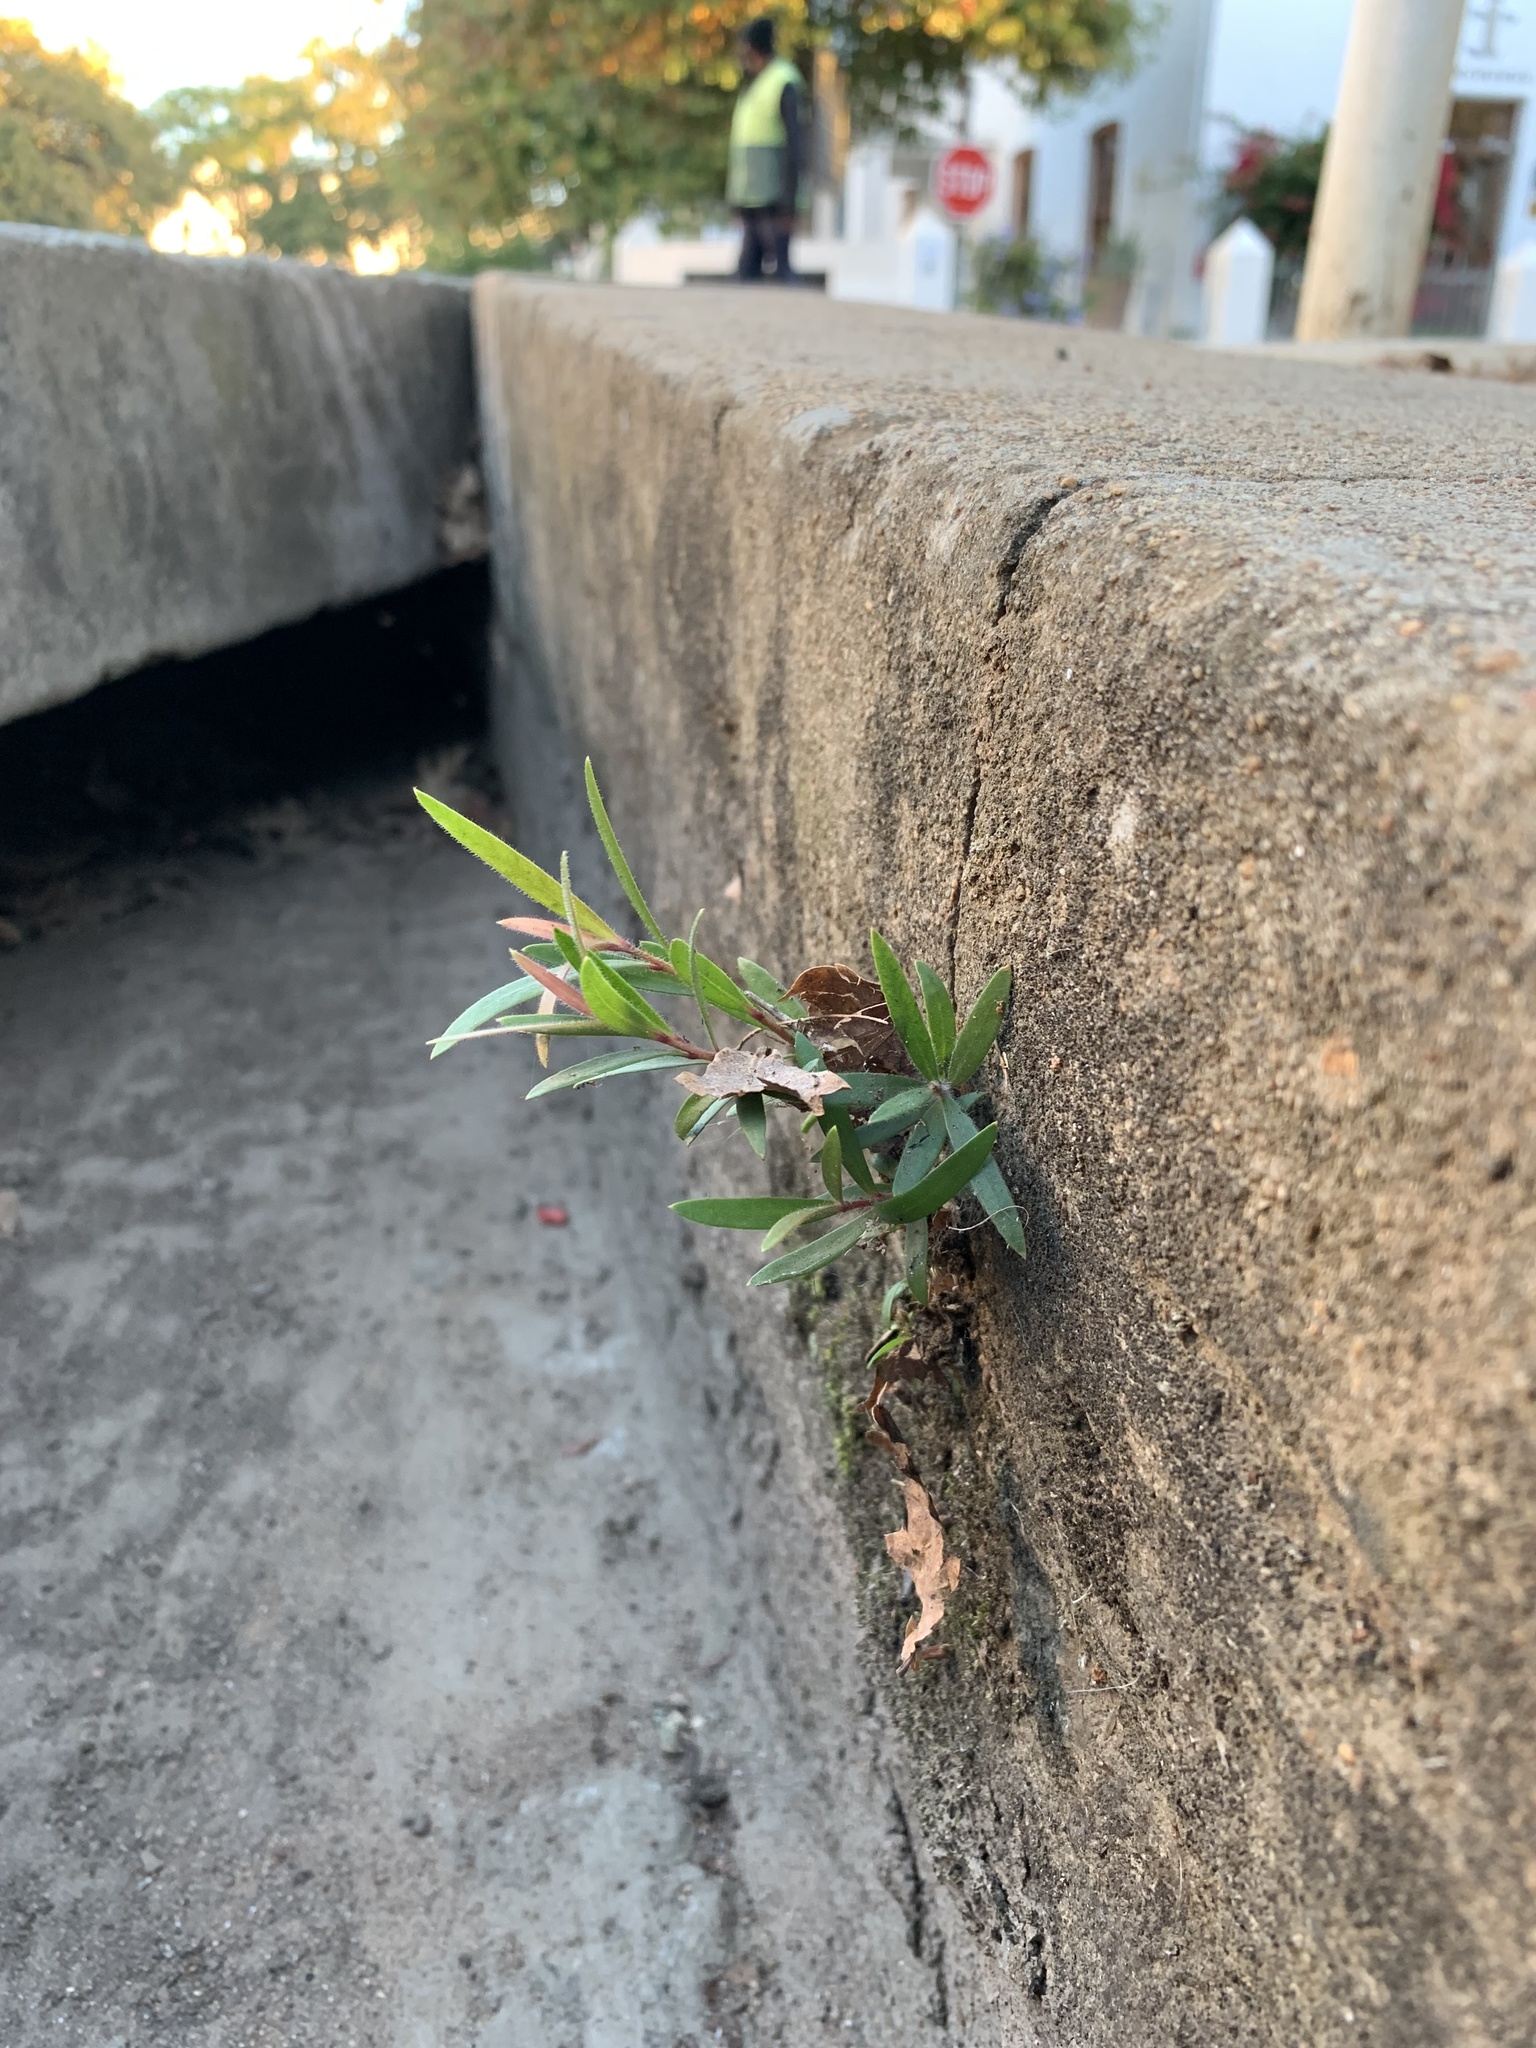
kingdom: Plantae
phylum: Tracheophyta
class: Magnoliopsida
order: Myrtales
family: Myrtaceae
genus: Callistemon
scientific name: Callistemon viminalis
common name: Drooping bottlebrush
